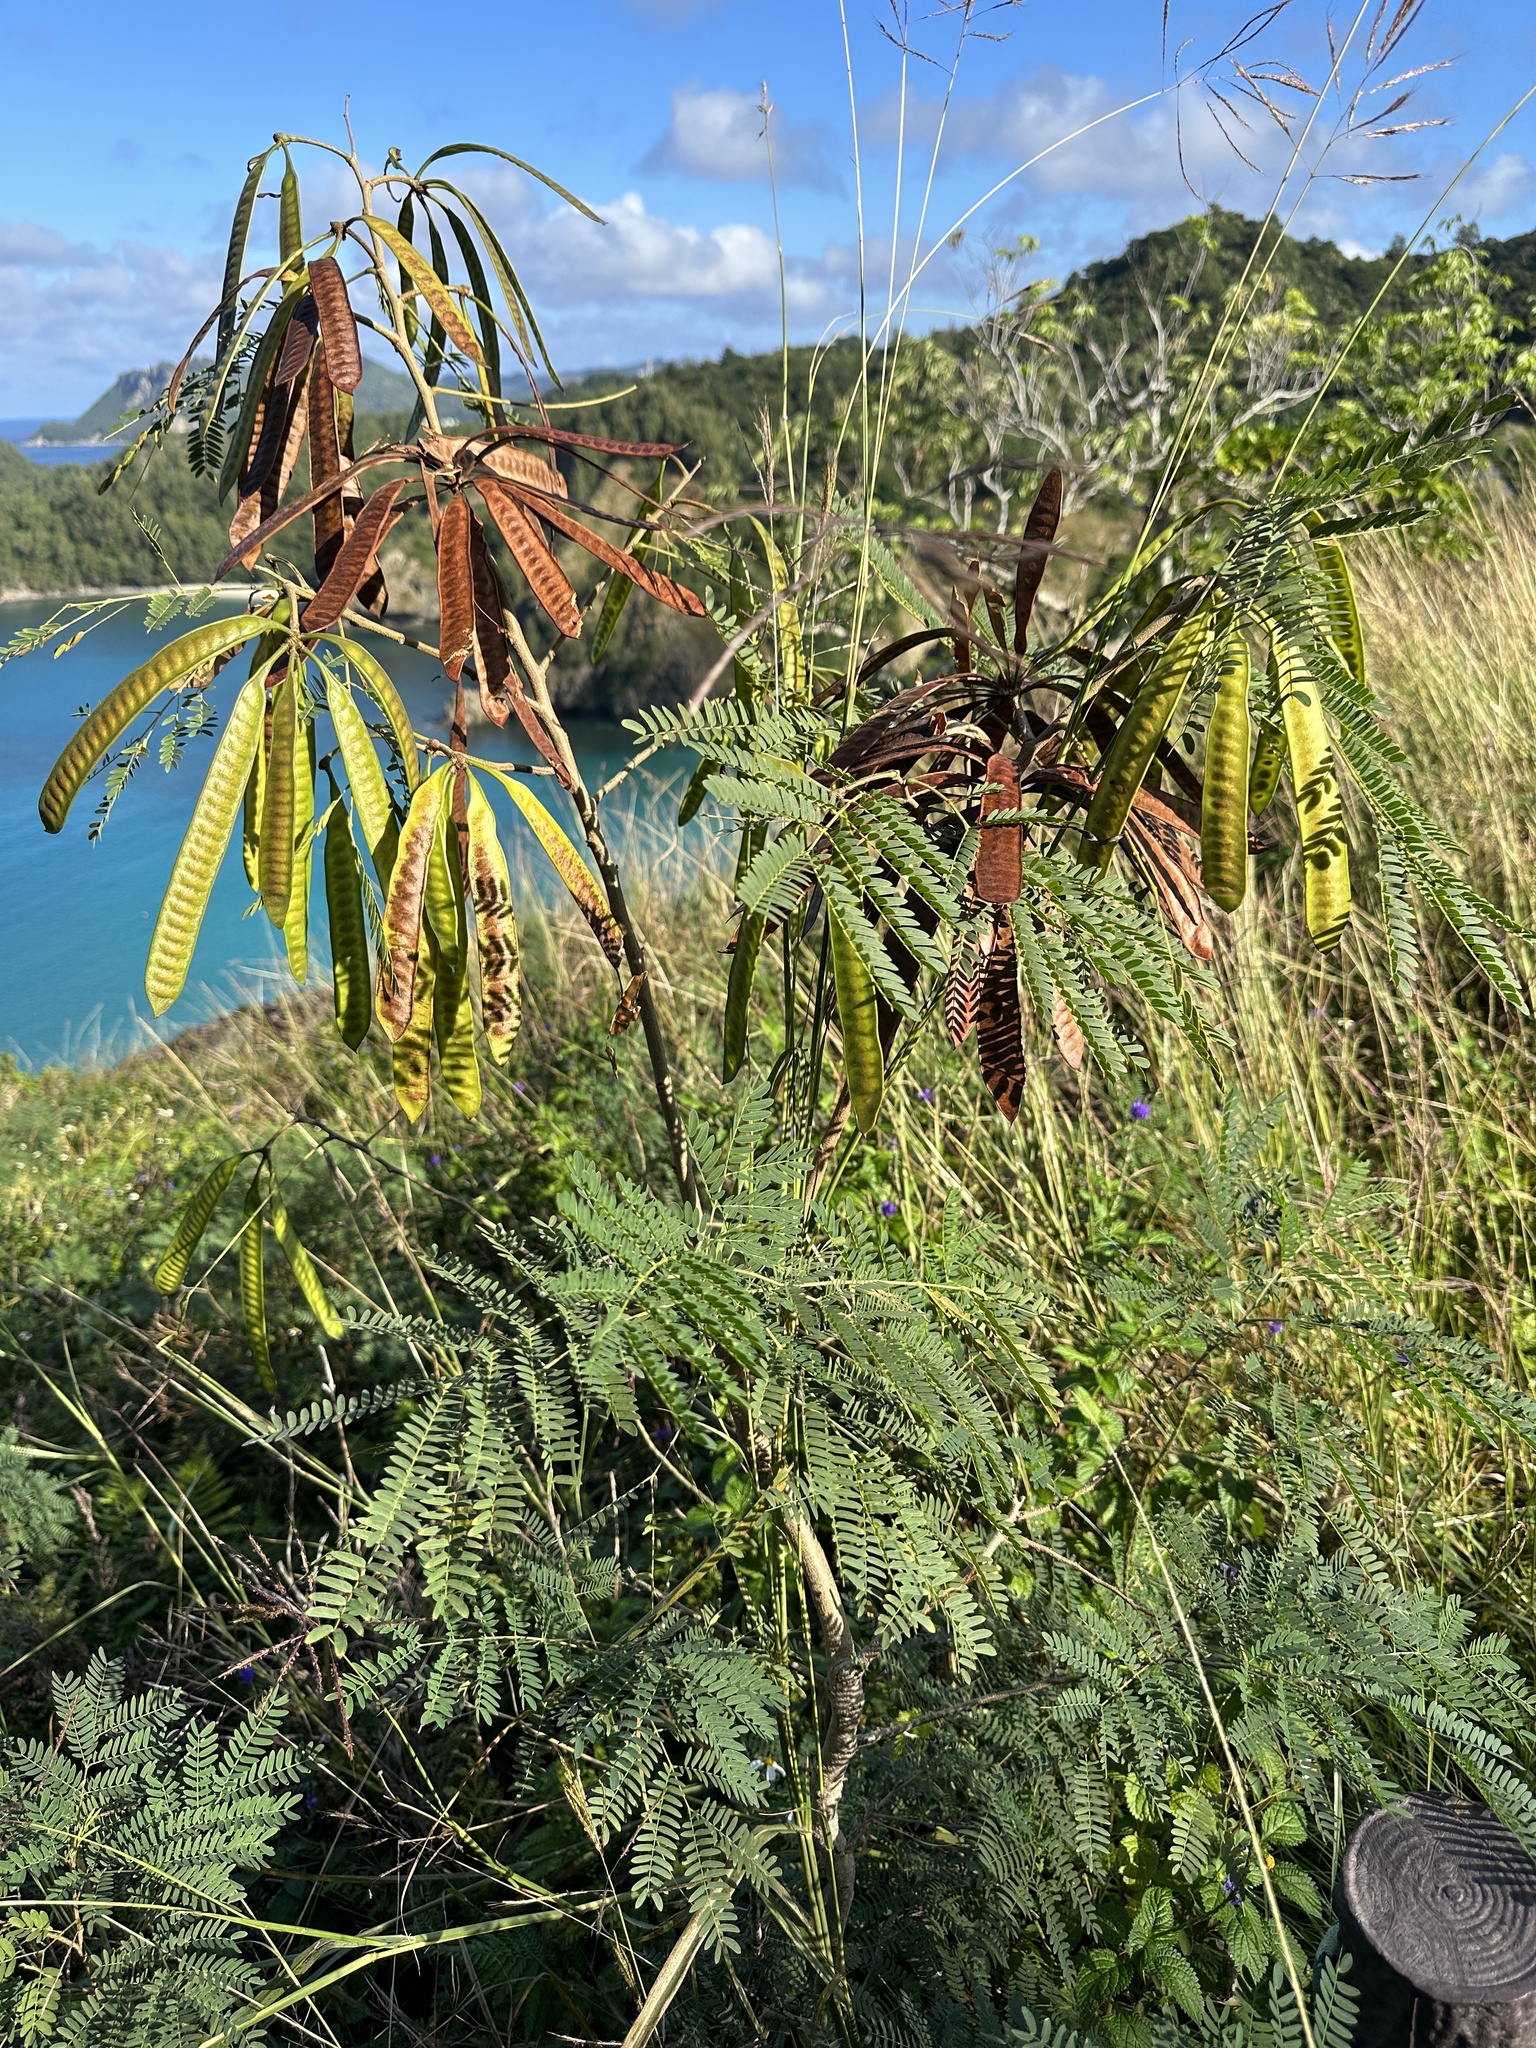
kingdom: Plantae
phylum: Tracheophyta
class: Magnoliopsida
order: Fabales
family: Fabaceae
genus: Leucaena
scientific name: Leucaena leucocephala
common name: White leadtree
